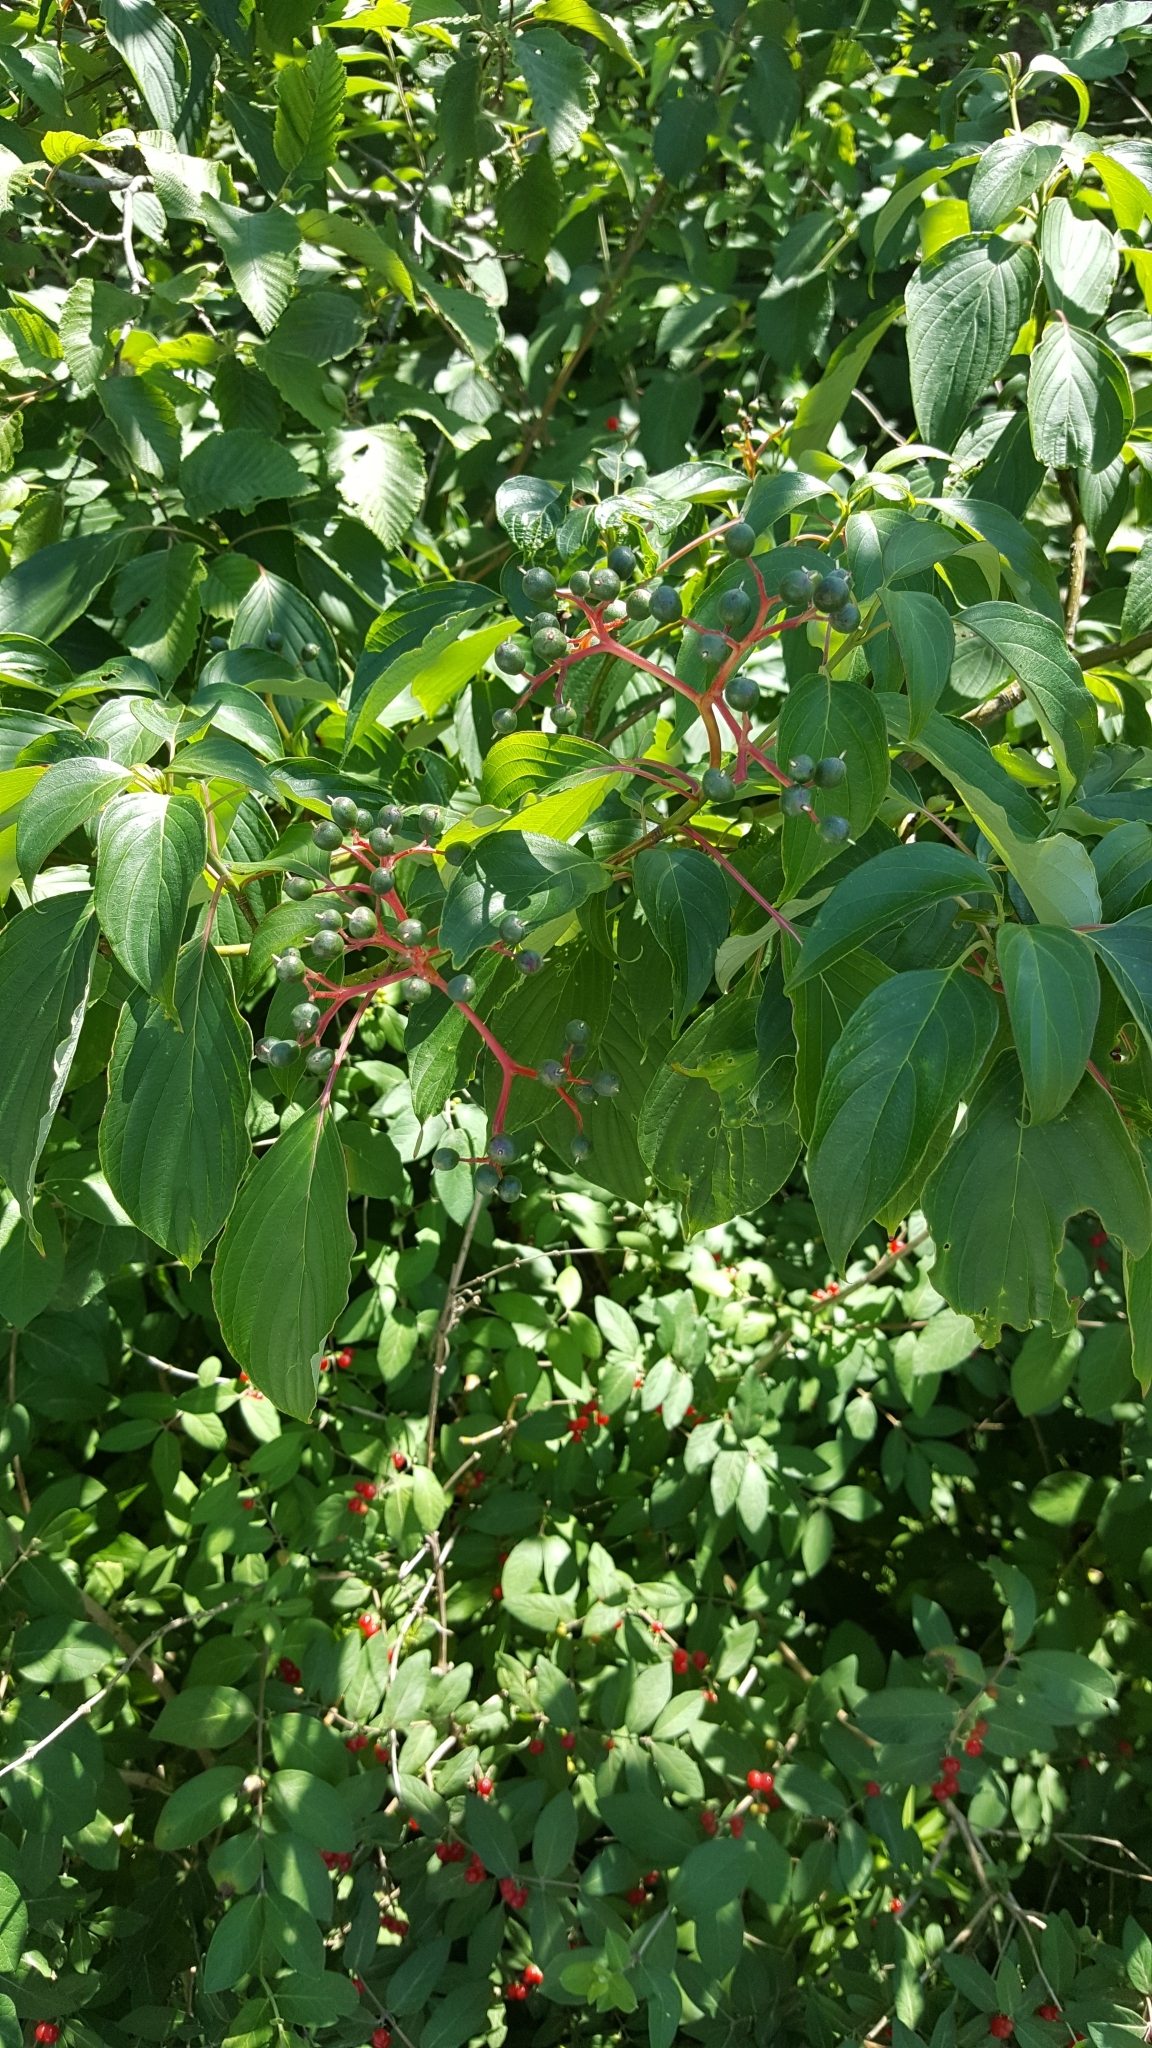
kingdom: Plantae
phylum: Tracheophyta
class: Magnoliopsida
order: Cornales
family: Cornaceae
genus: Cornus
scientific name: Cornus alternifolia
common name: Pagoda dogwood
